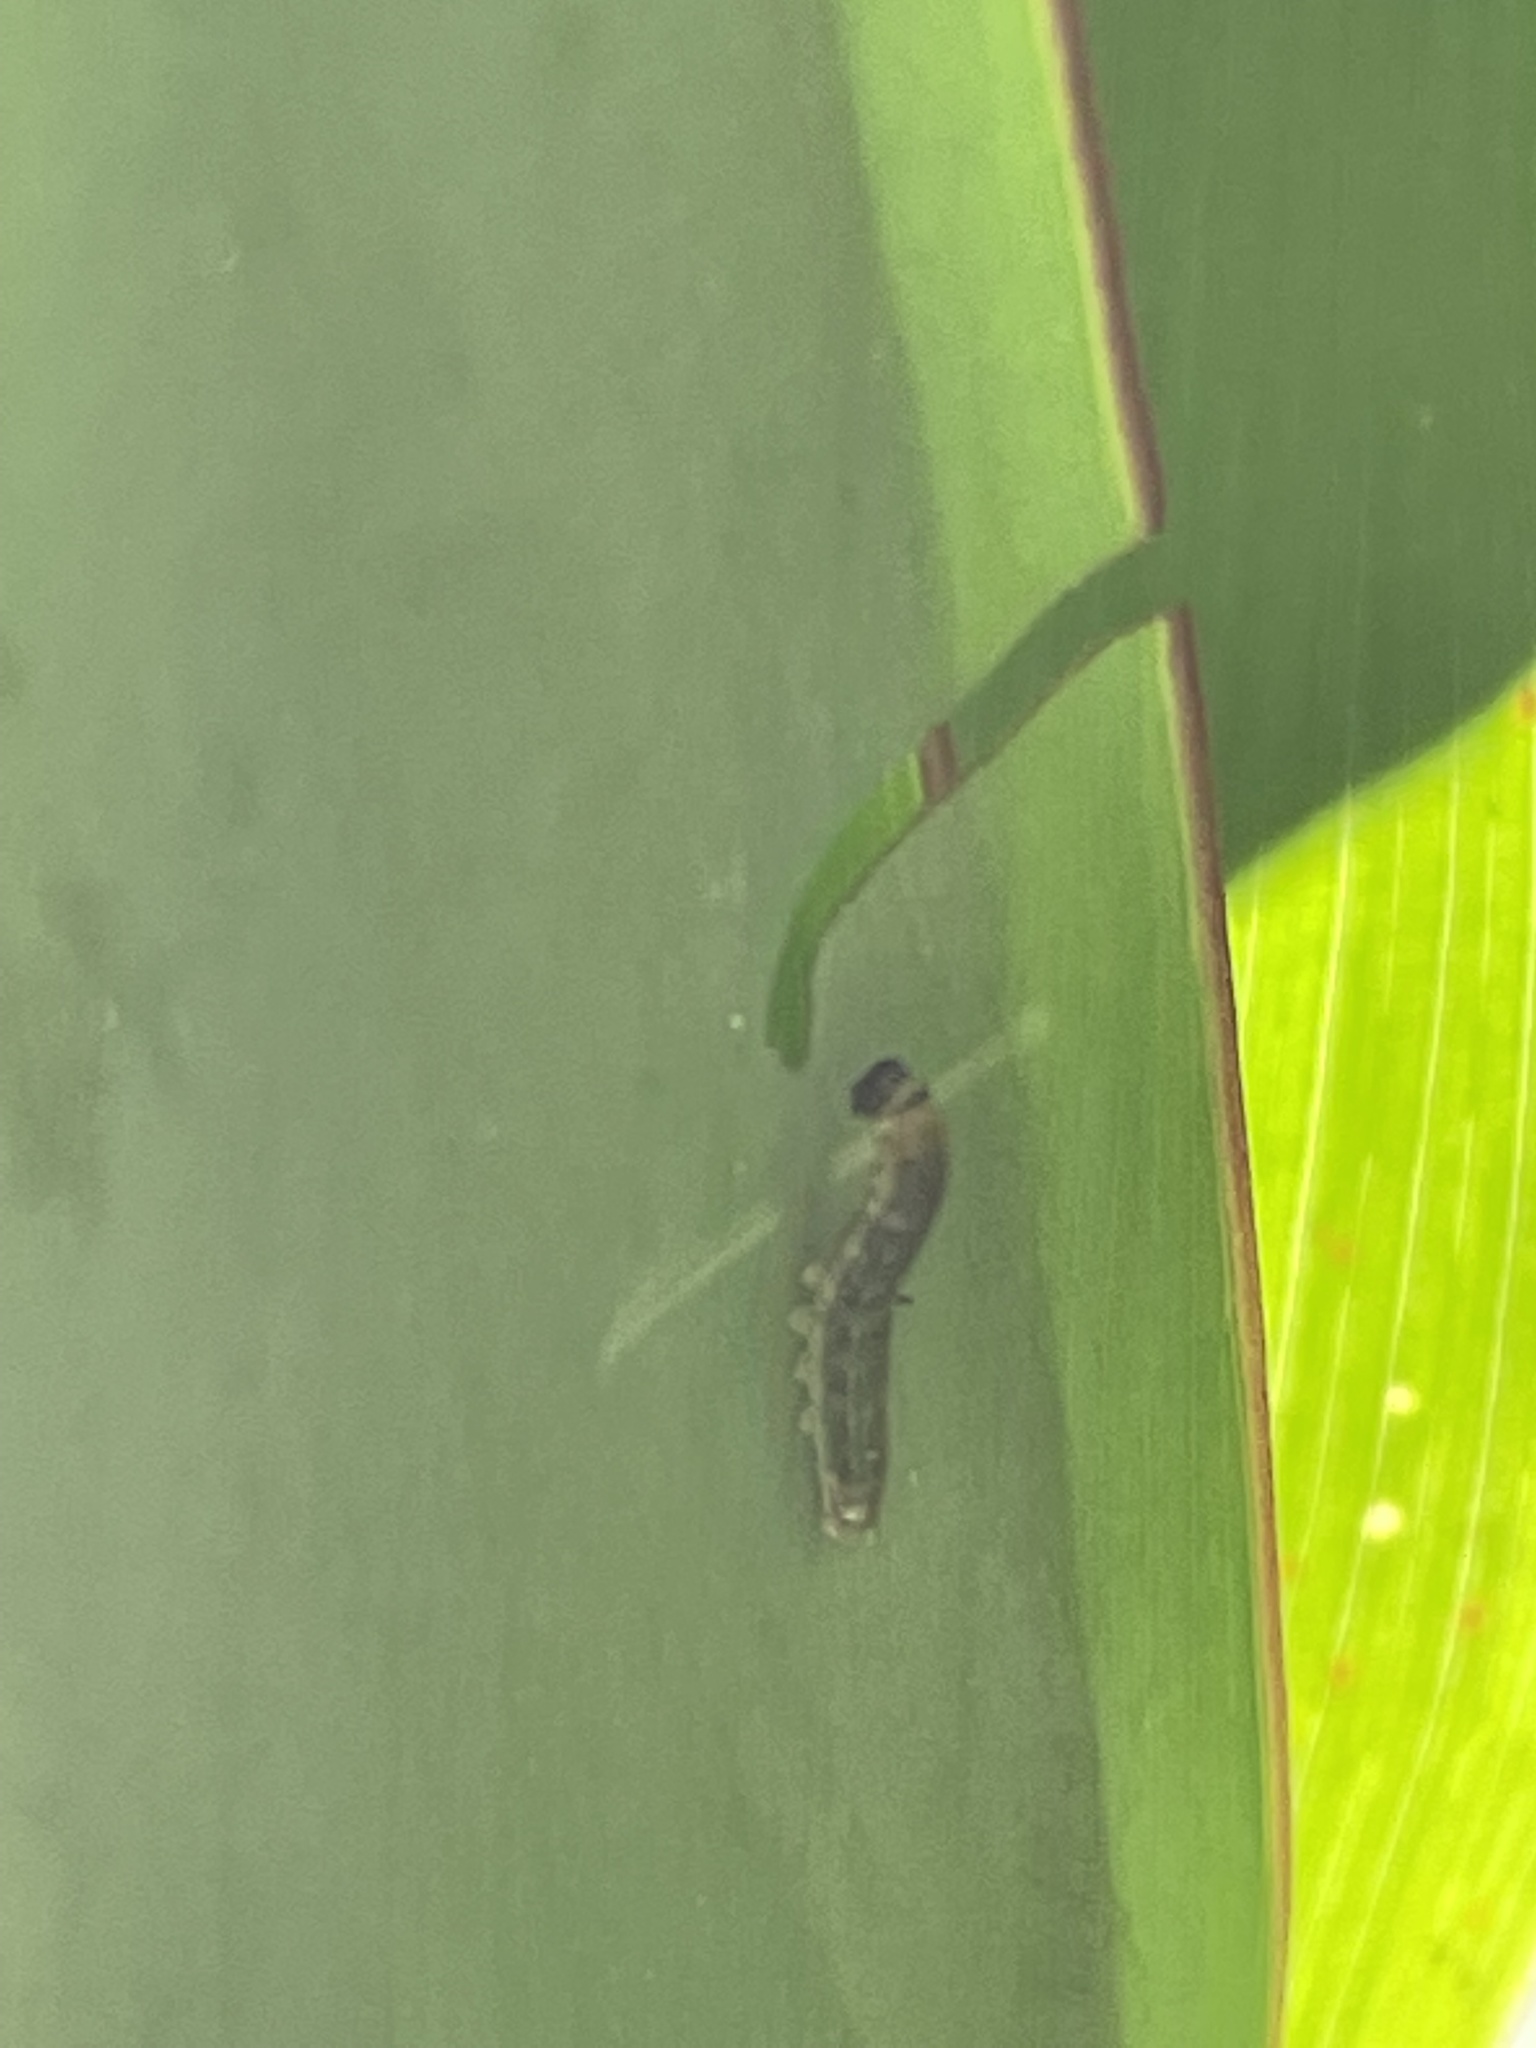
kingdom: Animalia
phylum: Arthropoda
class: Insecta
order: Lepidoptera
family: Hesperiidae
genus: Calpodes
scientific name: Calpodes ethlius
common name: Brazilian skipper
